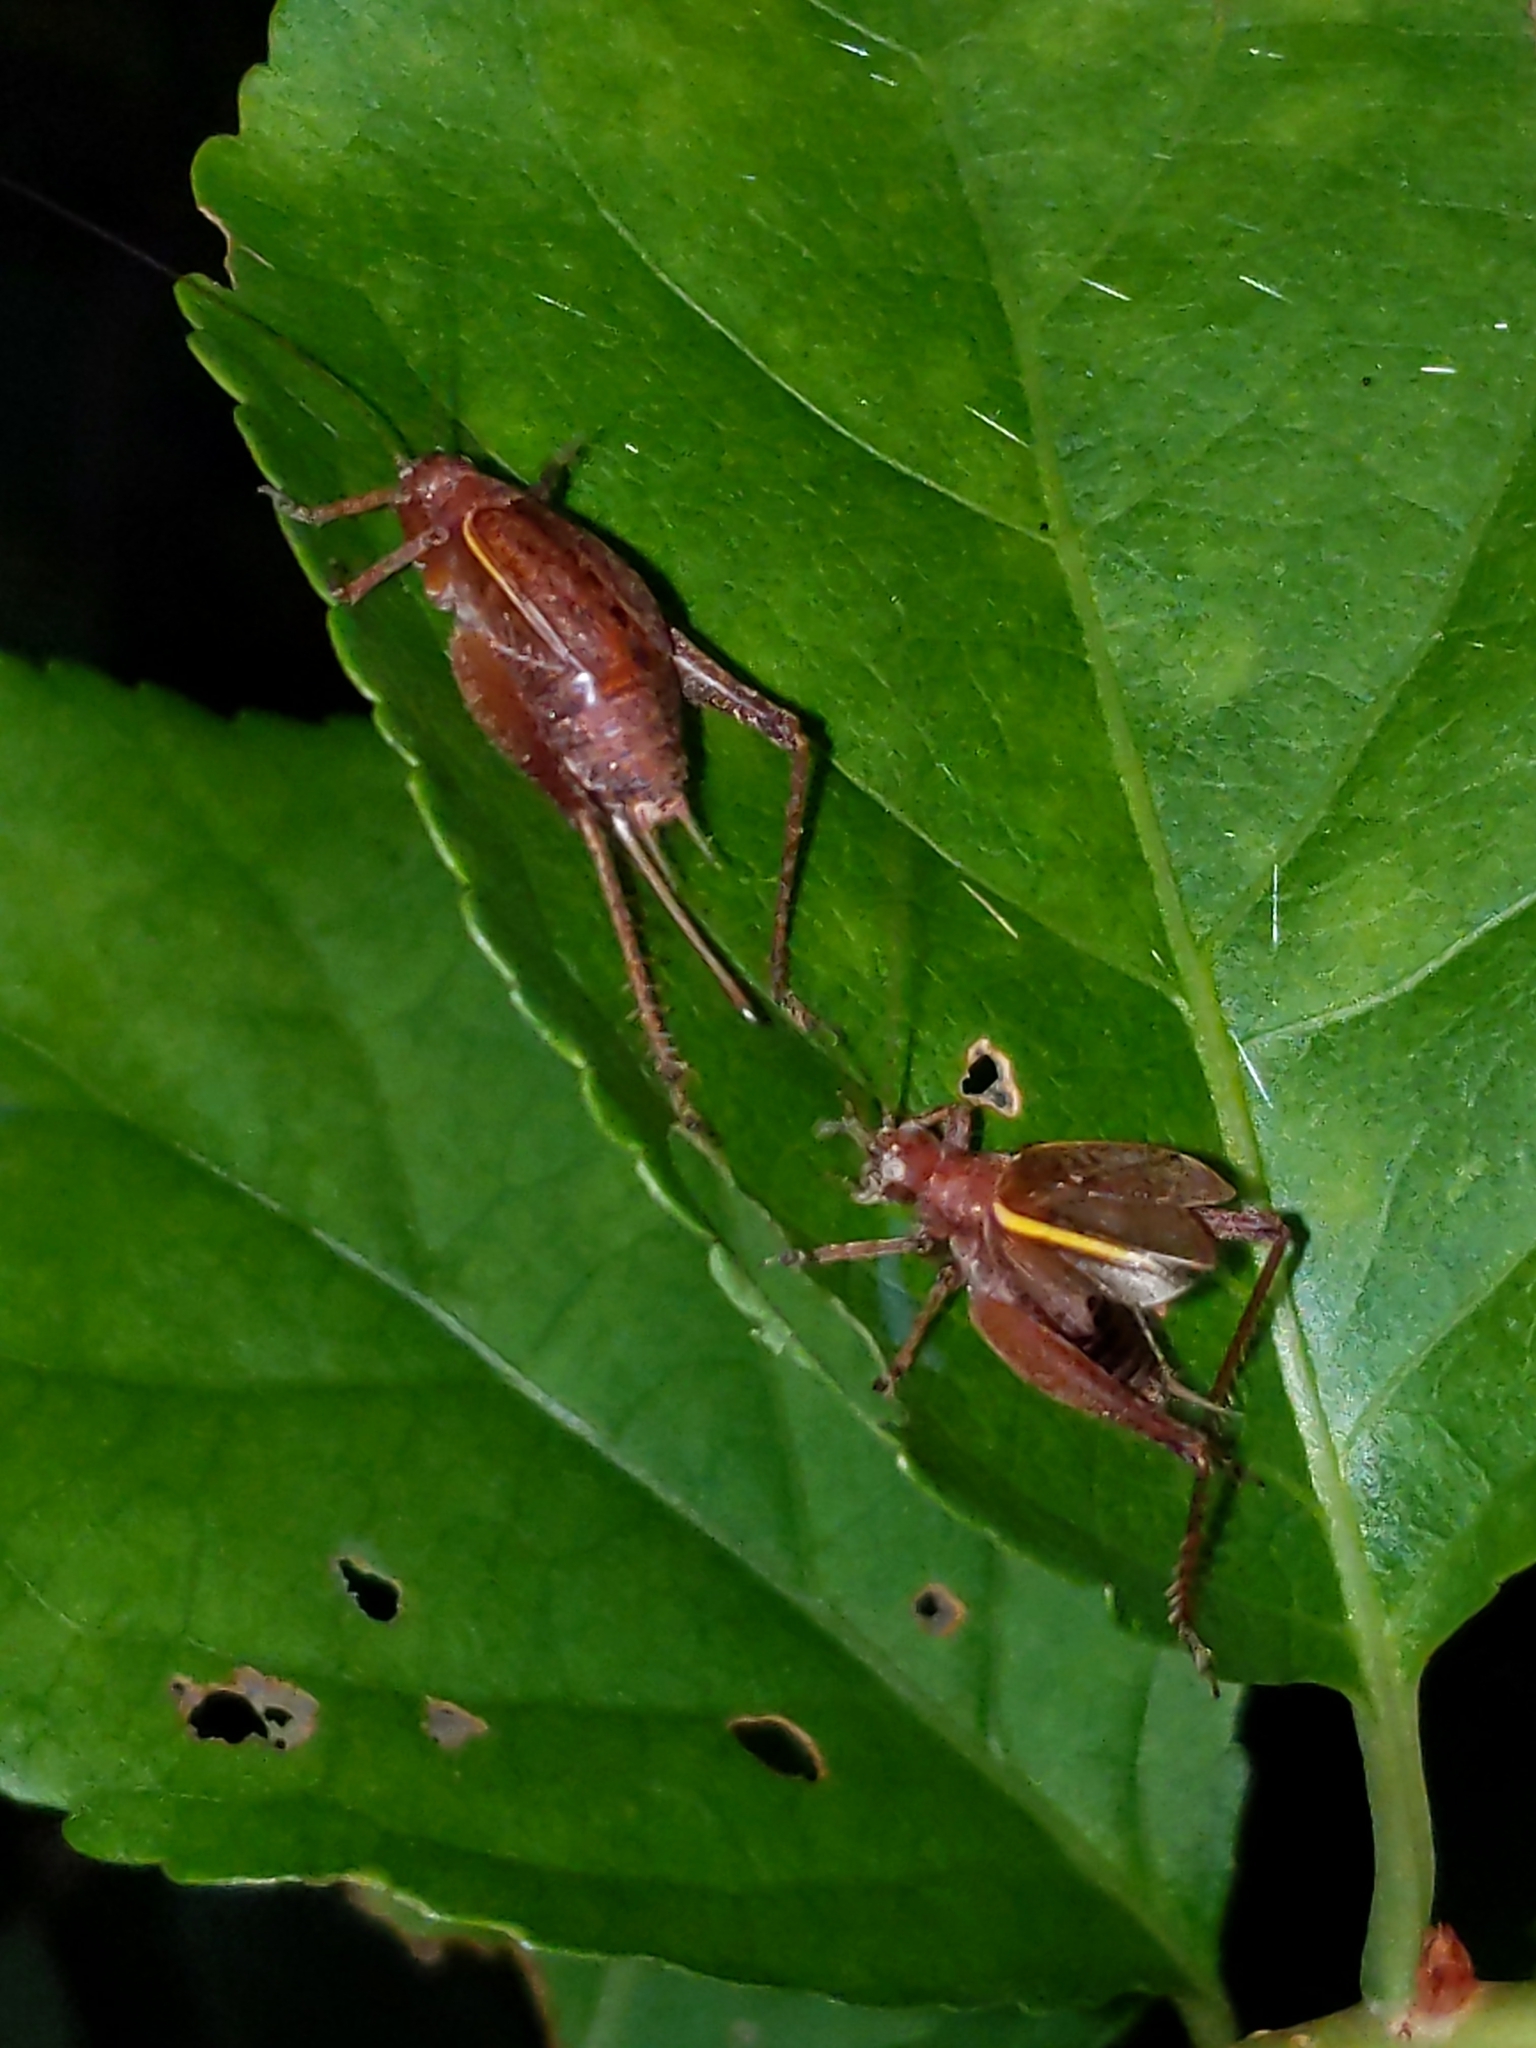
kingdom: Animalia
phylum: Arthropoda
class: Insecta
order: Orthoptera
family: Gryllidae
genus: Hapithus
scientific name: Hapithus agitator
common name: Restless bush cricket
